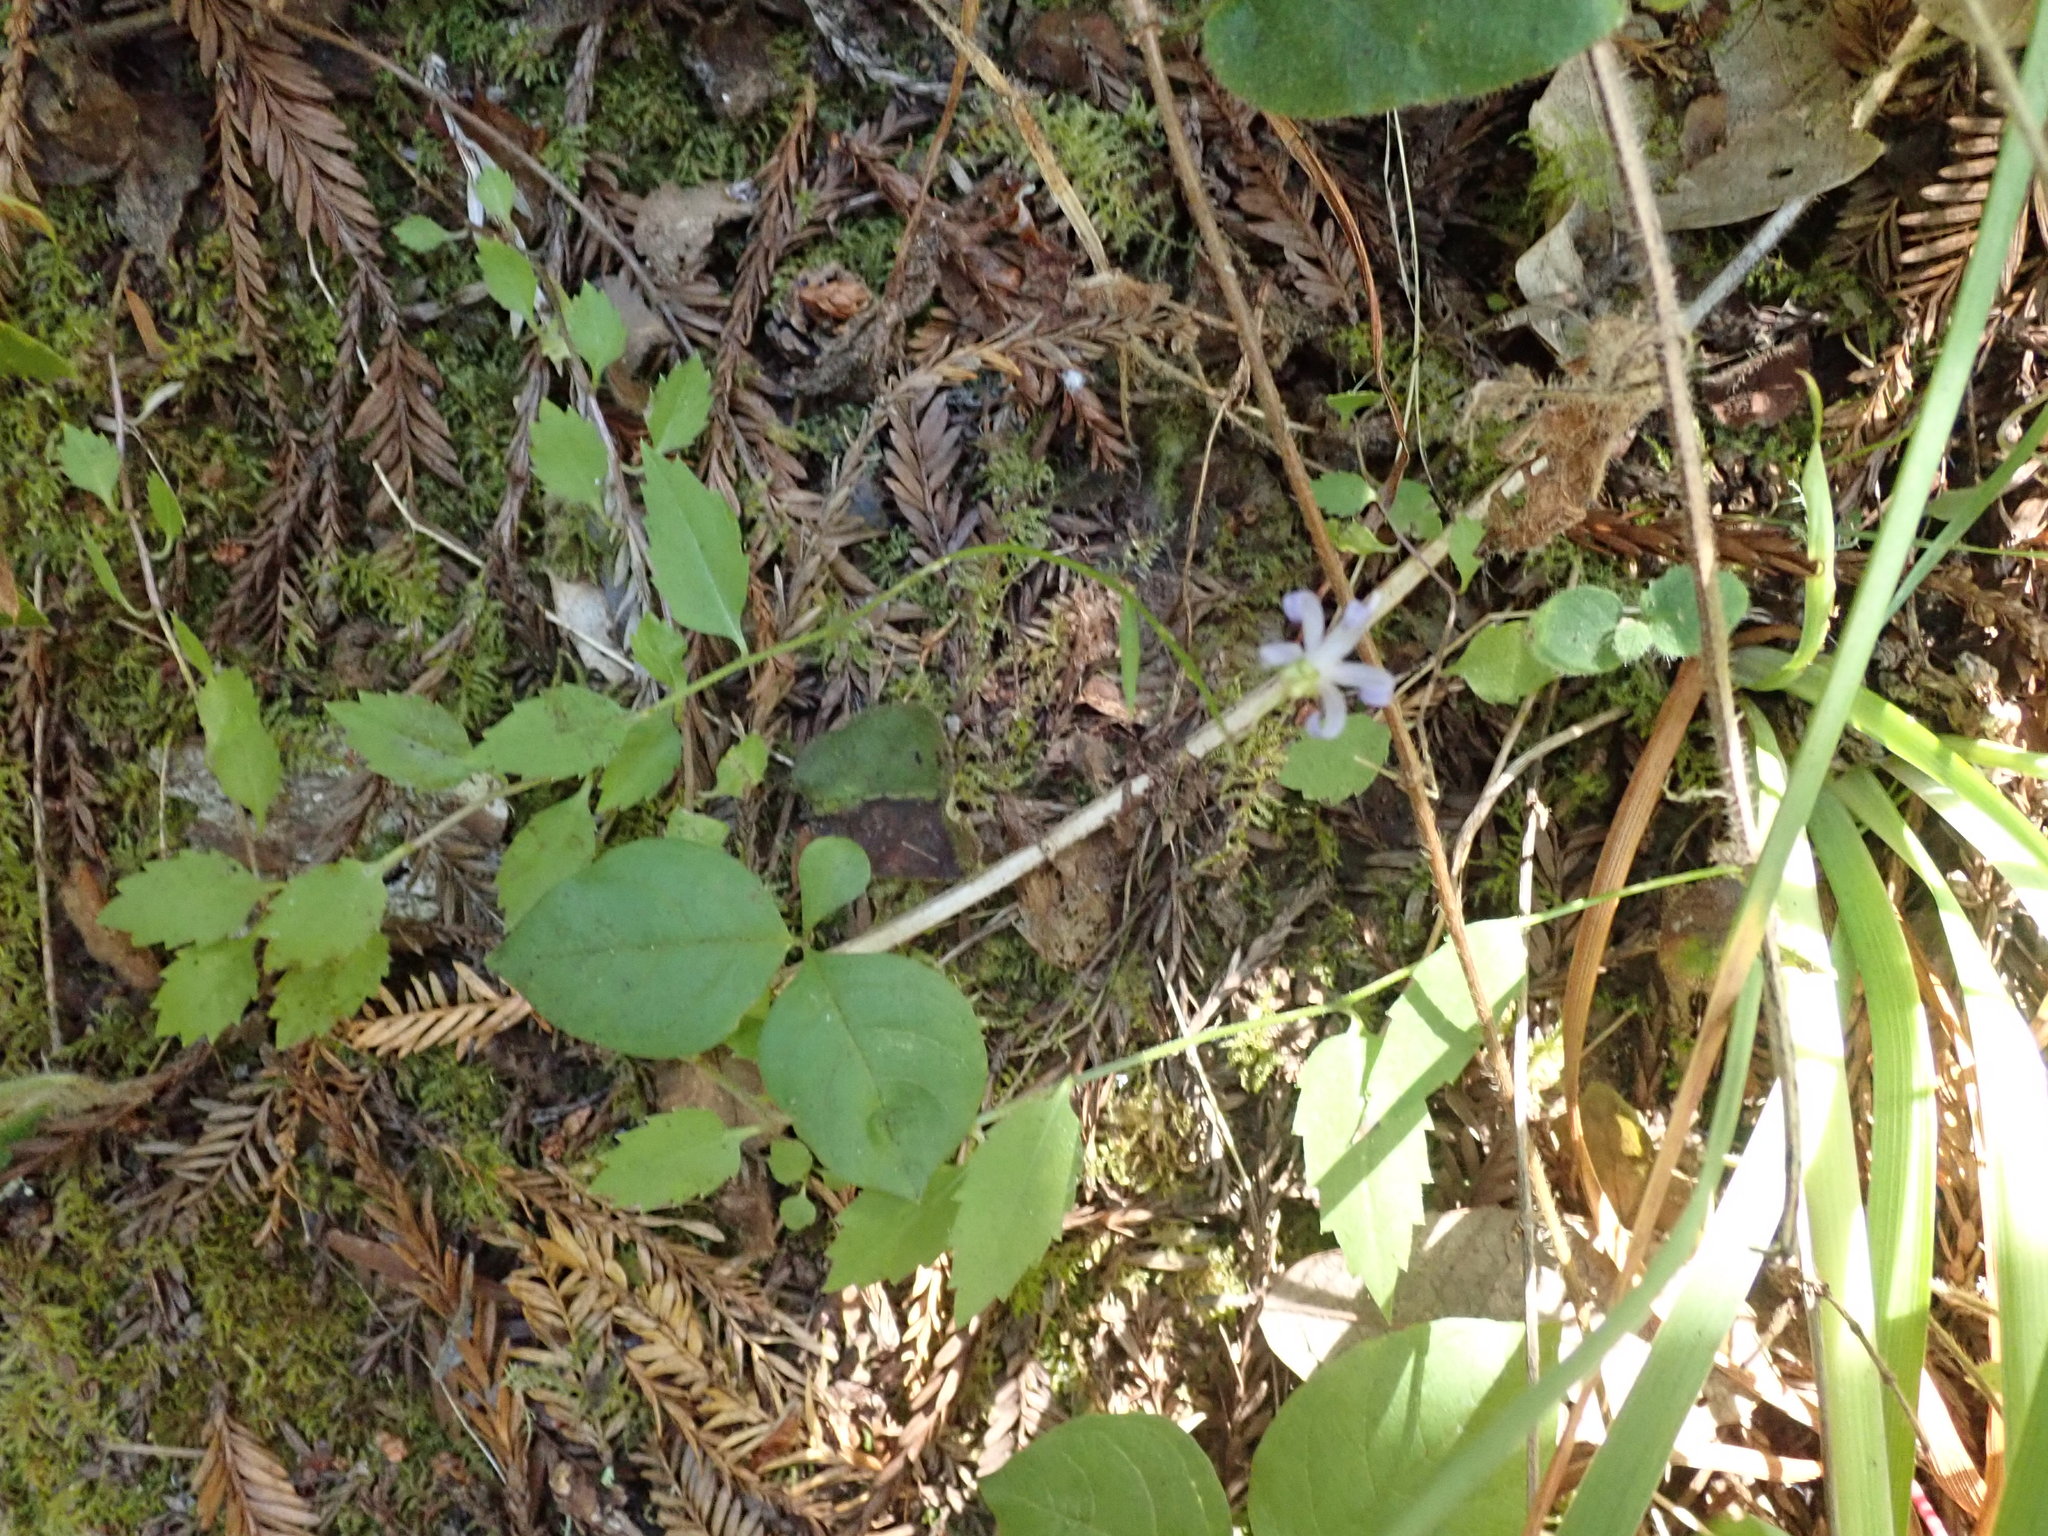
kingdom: Plantae
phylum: Tracheophyta
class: Magnoliopsida
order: Asterales
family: Campanulaceae
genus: Smithiastrum
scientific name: Smithiastrum prenanthoides
